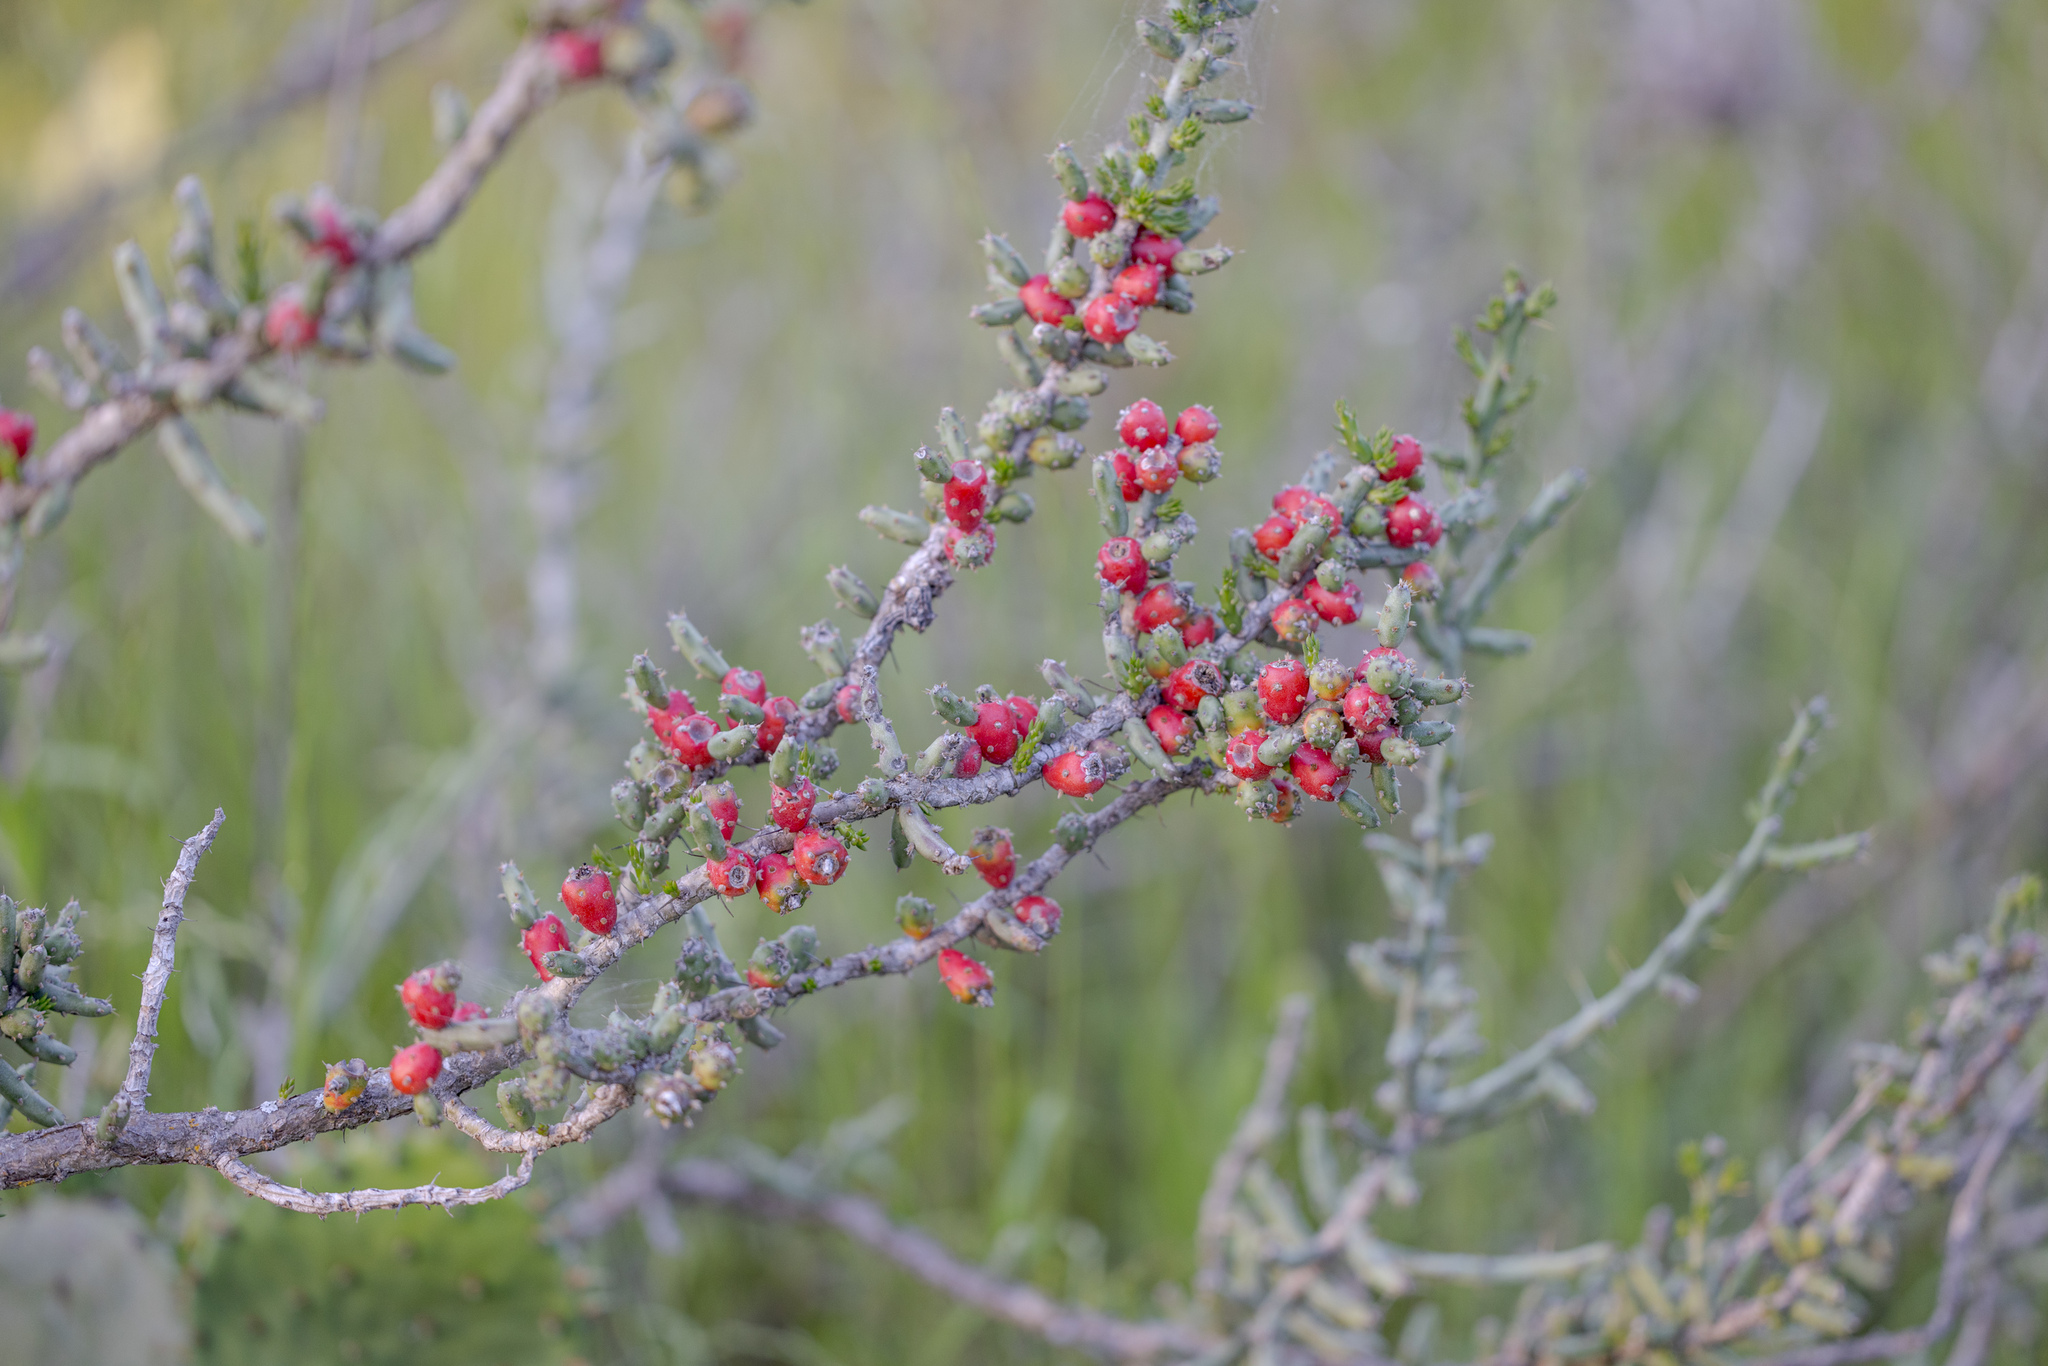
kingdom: Plantae
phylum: Tracheophyta
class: Magnoliopsida
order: Caryophyllales
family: Cactaceae
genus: Cylindropuntia
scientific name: Cylindropuntia leptocaulis
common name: Christmas cactus
